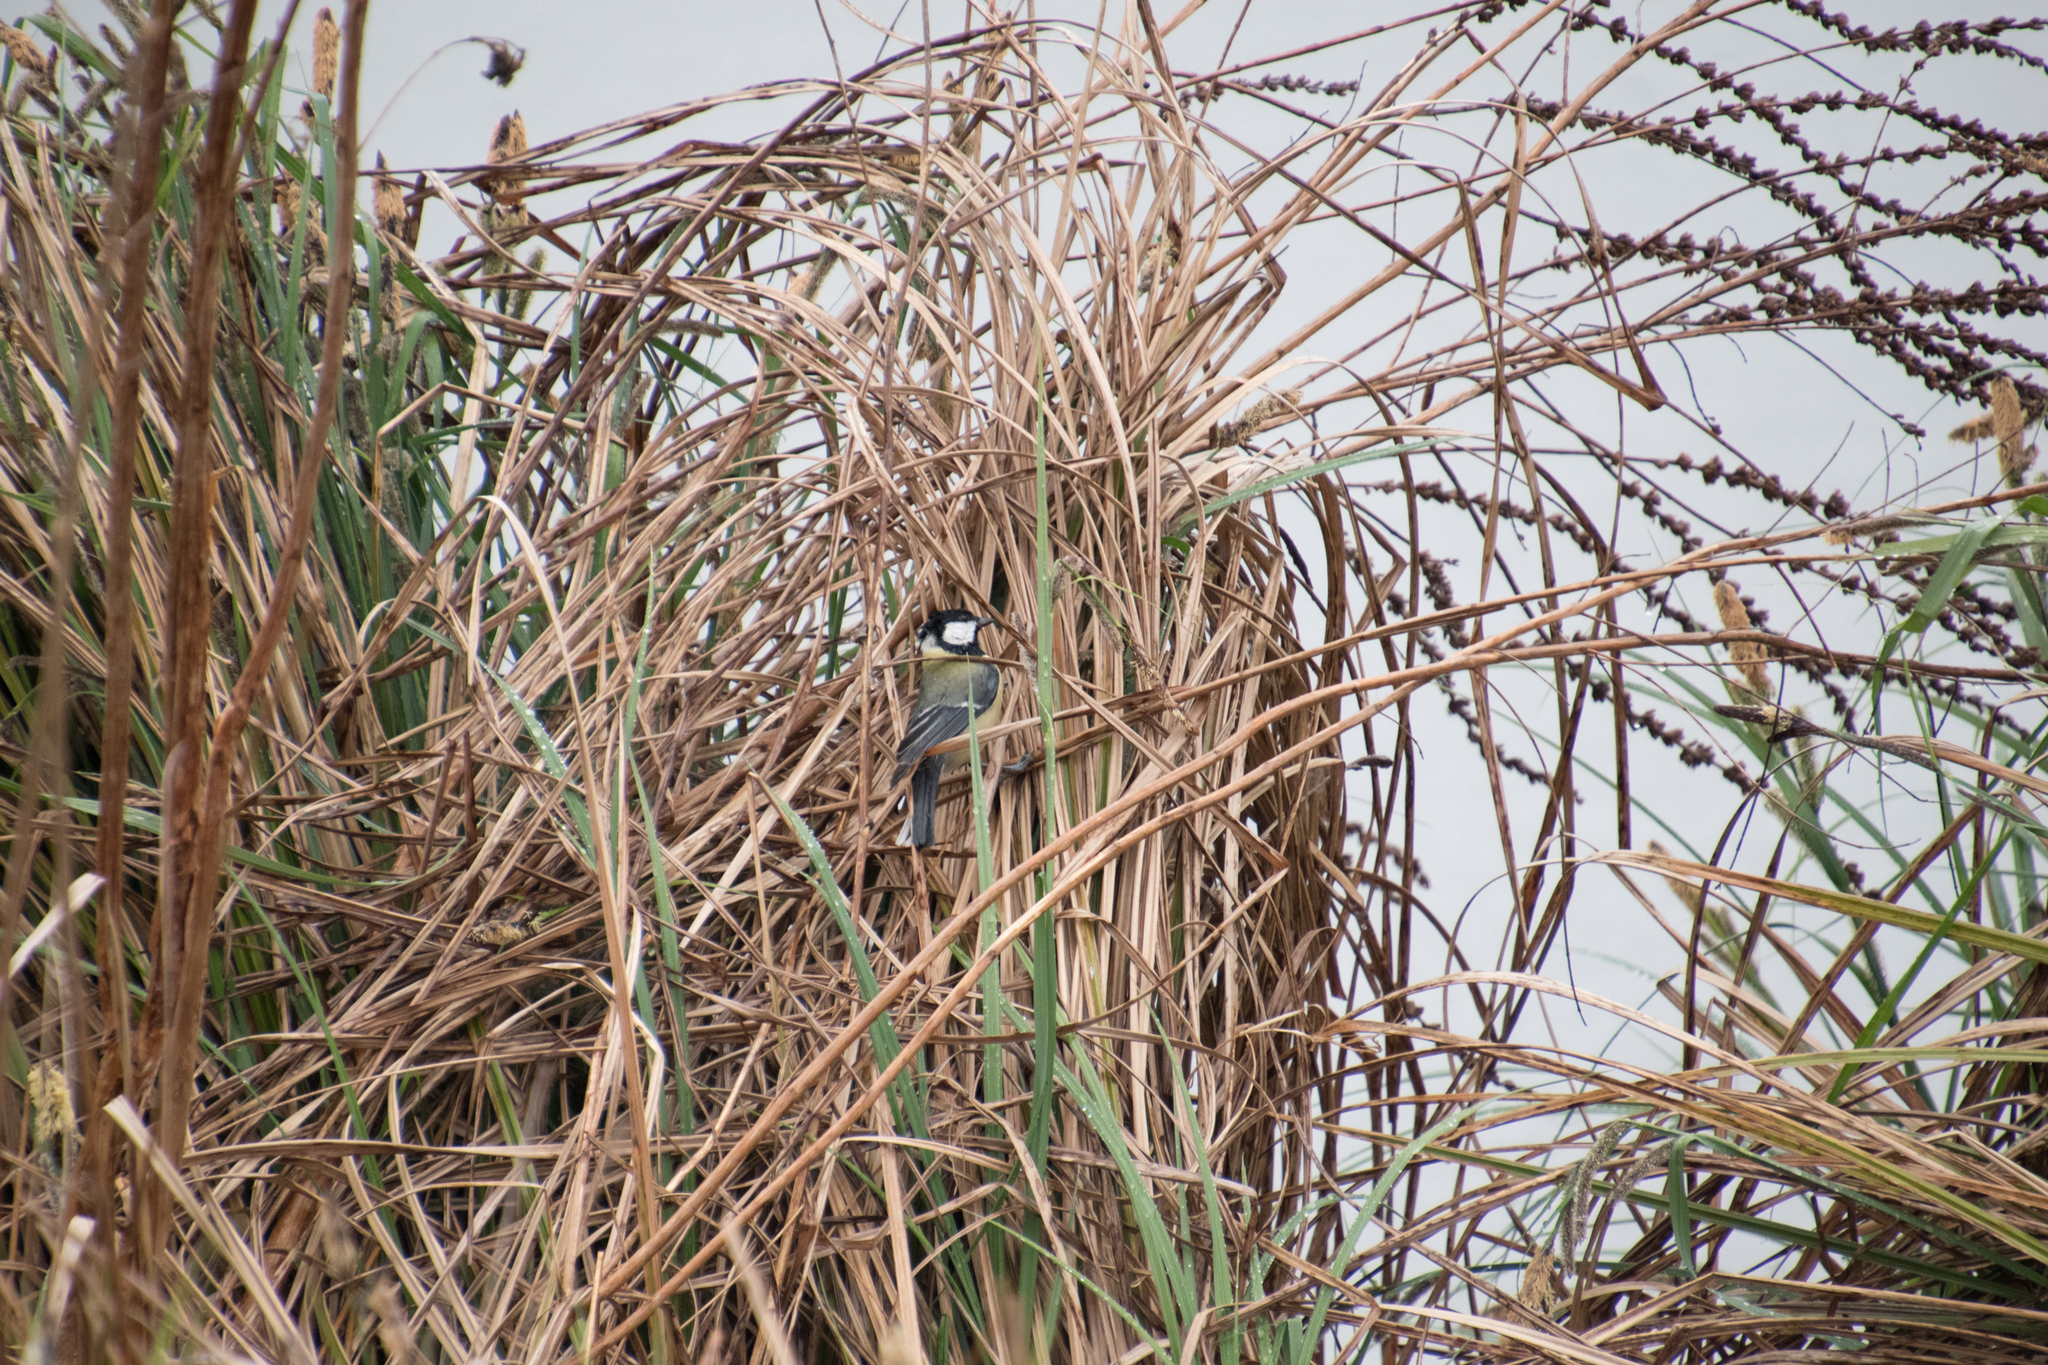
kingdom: Animalia
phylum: Chordata
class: Aves
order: Passeriformes
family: Paridae
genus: Parus
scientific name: Parus major
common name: Great tit
